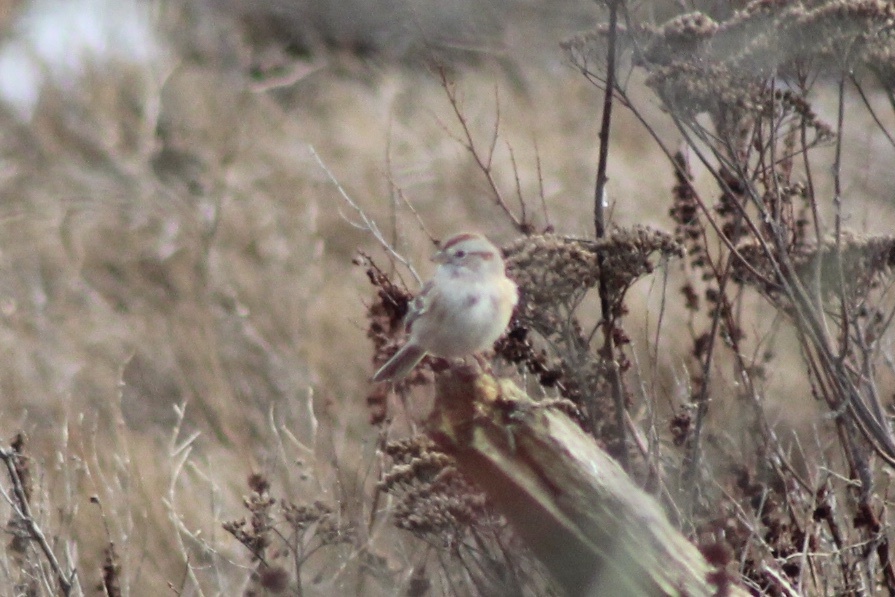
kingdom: Animalia
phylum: Chordata
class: Aves
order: Passeriformes
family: Passerellidae
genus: Spizelloides
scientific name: Spizelloides arborea
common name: American tree sparrow
